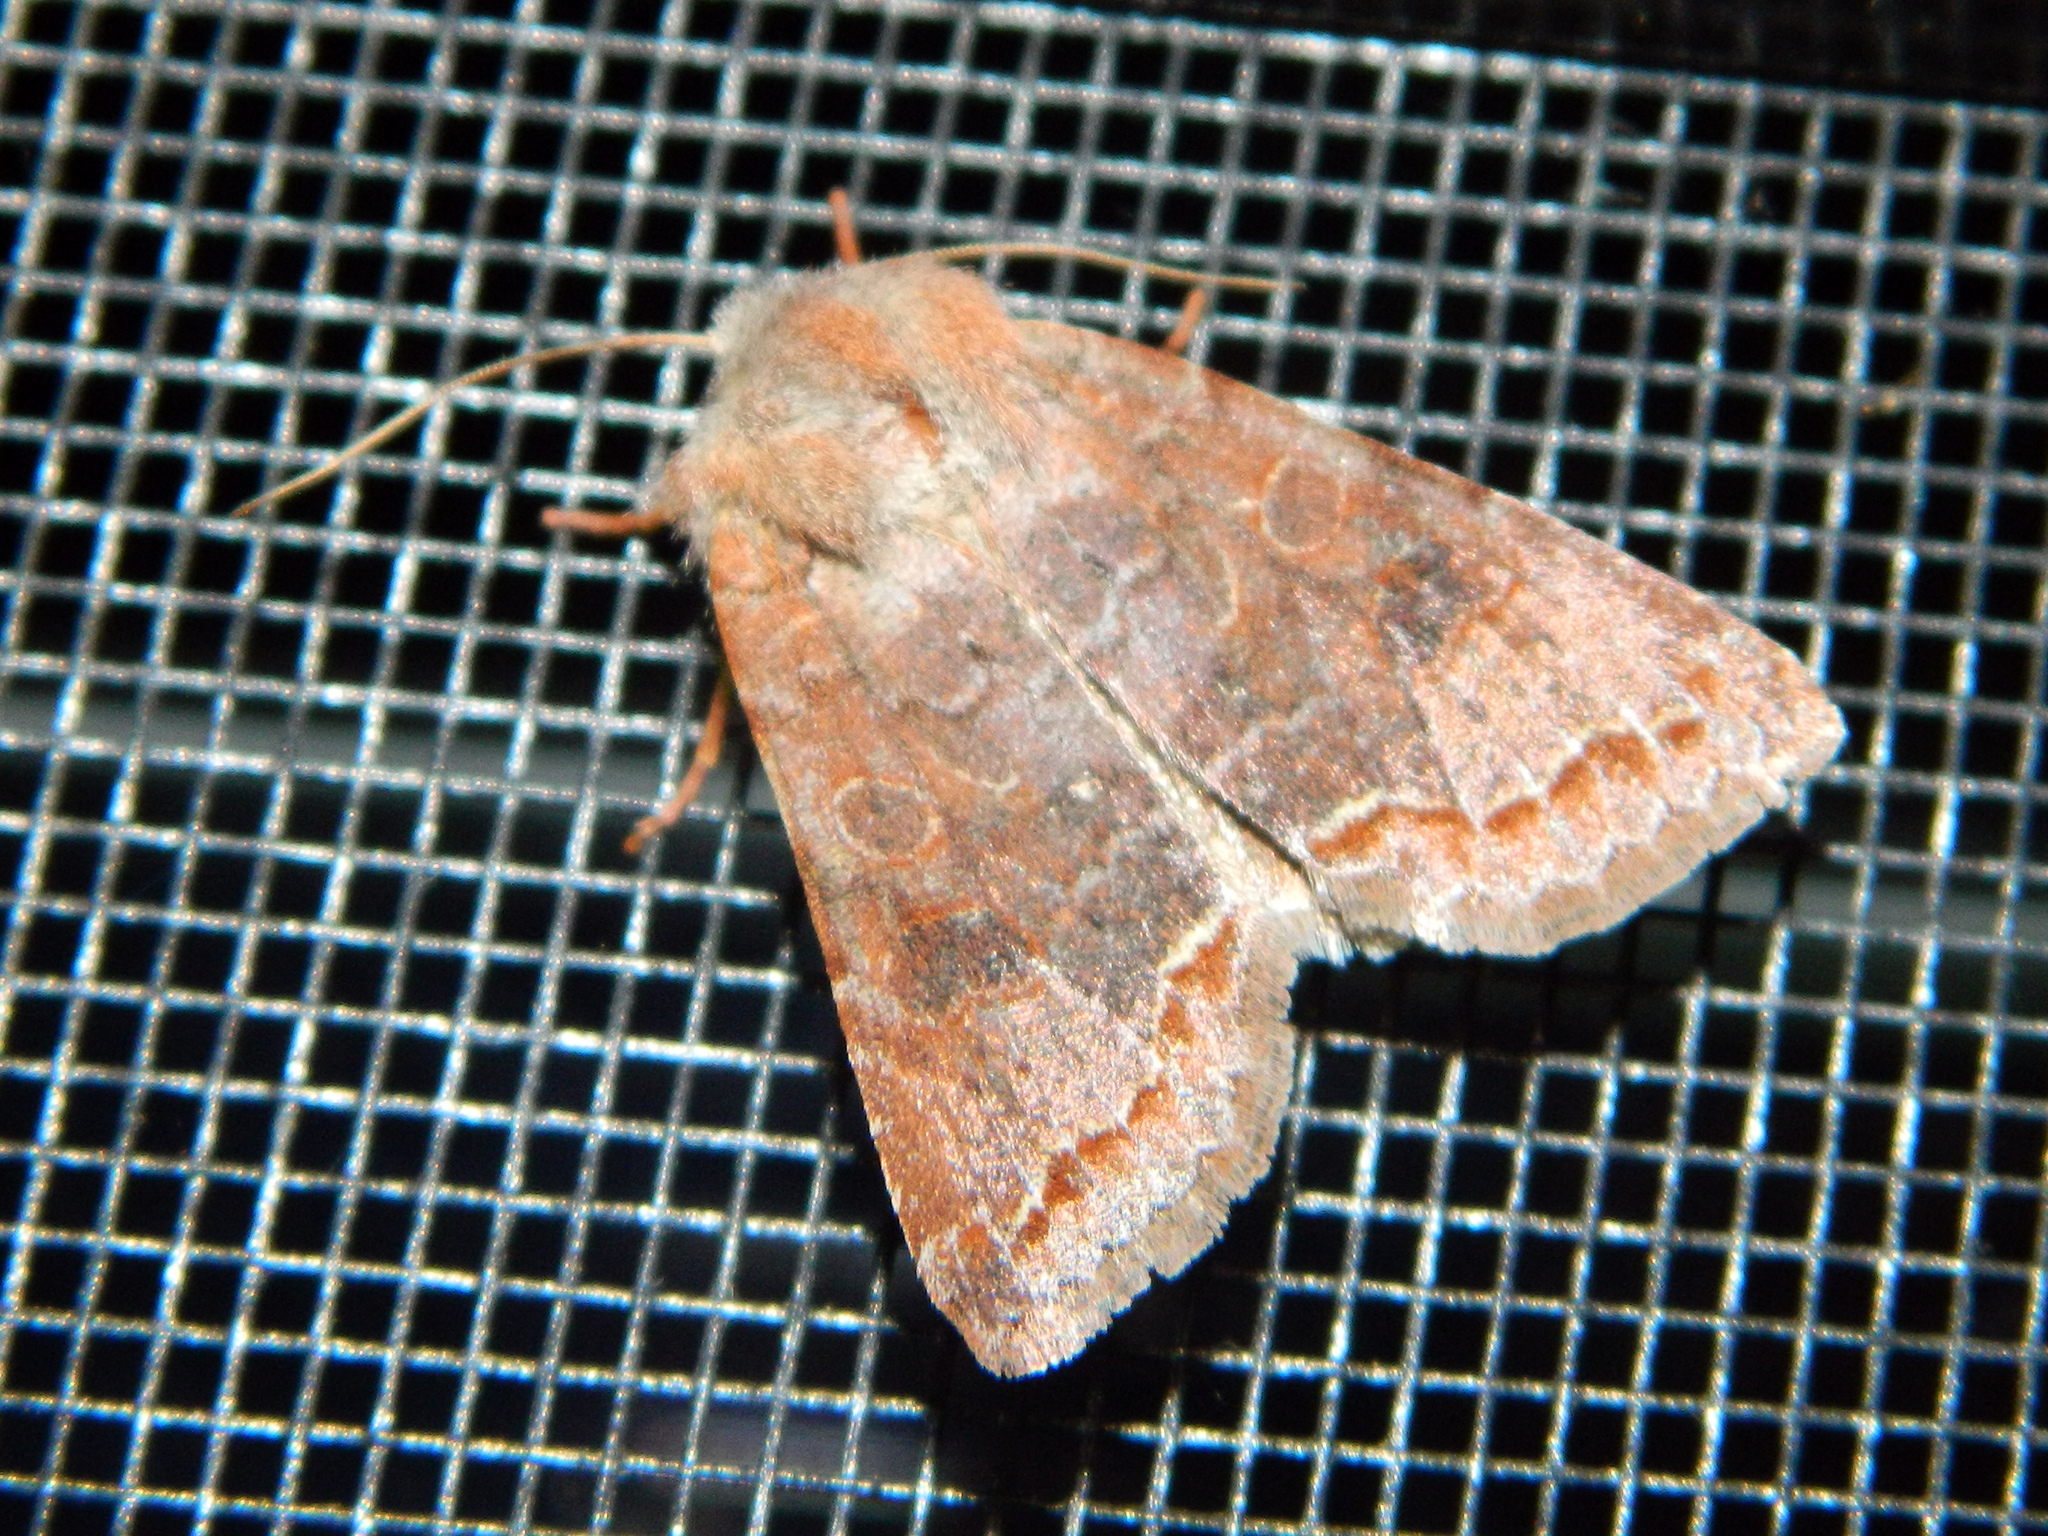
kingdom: Animalia
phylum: Arthropoda
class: Insecta
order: Lepidoptera
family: Noctuidae
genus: Orthosia
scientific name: Orthosia revicta
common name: Rusty whitesided caterpillar
